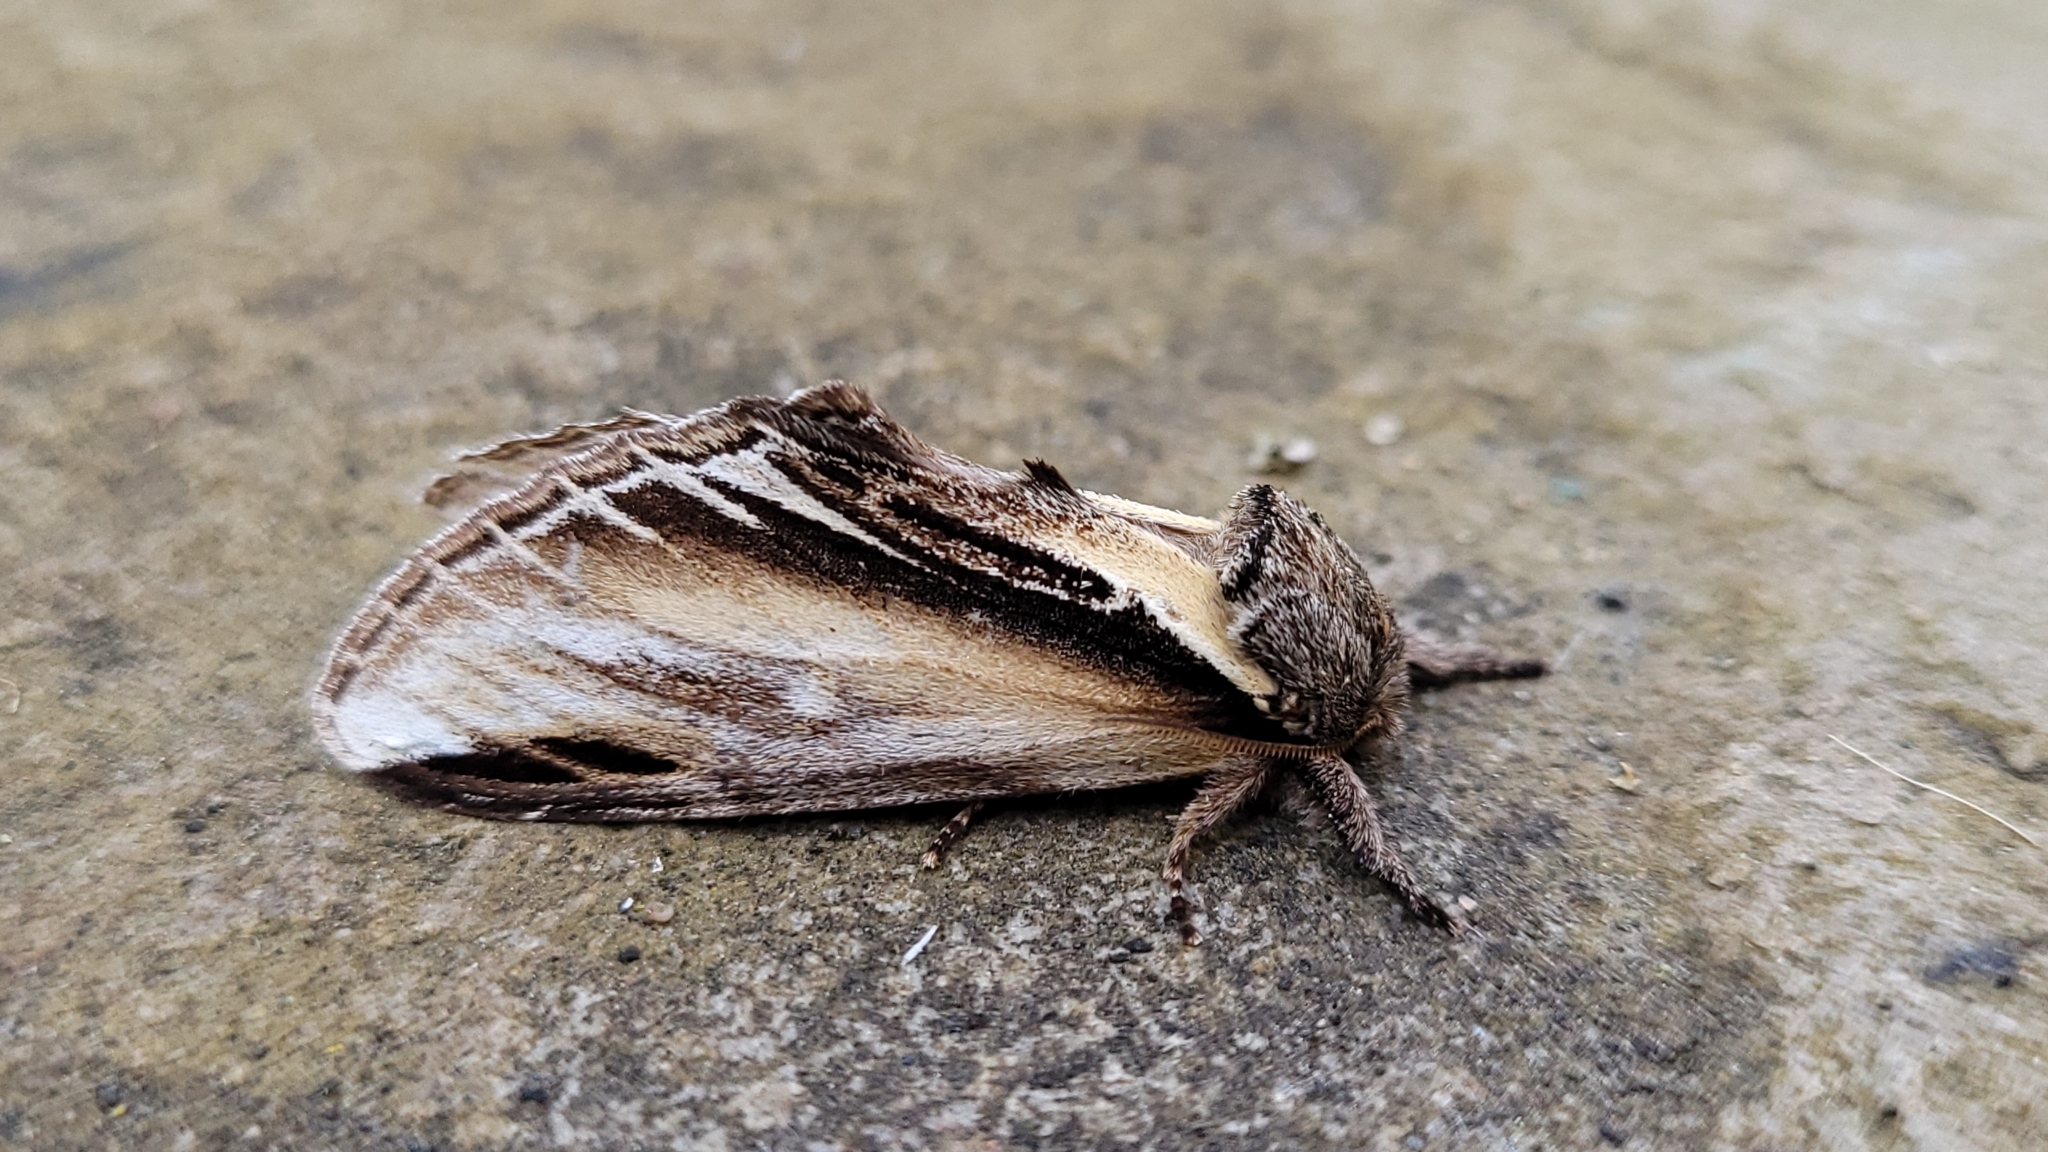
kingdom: Animalia
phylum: Arthropoda
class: Insecta
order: Lepidoptera
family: Notodontidae
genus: Pheosia
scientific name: Pheosia tremula
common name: Swallow prominent
